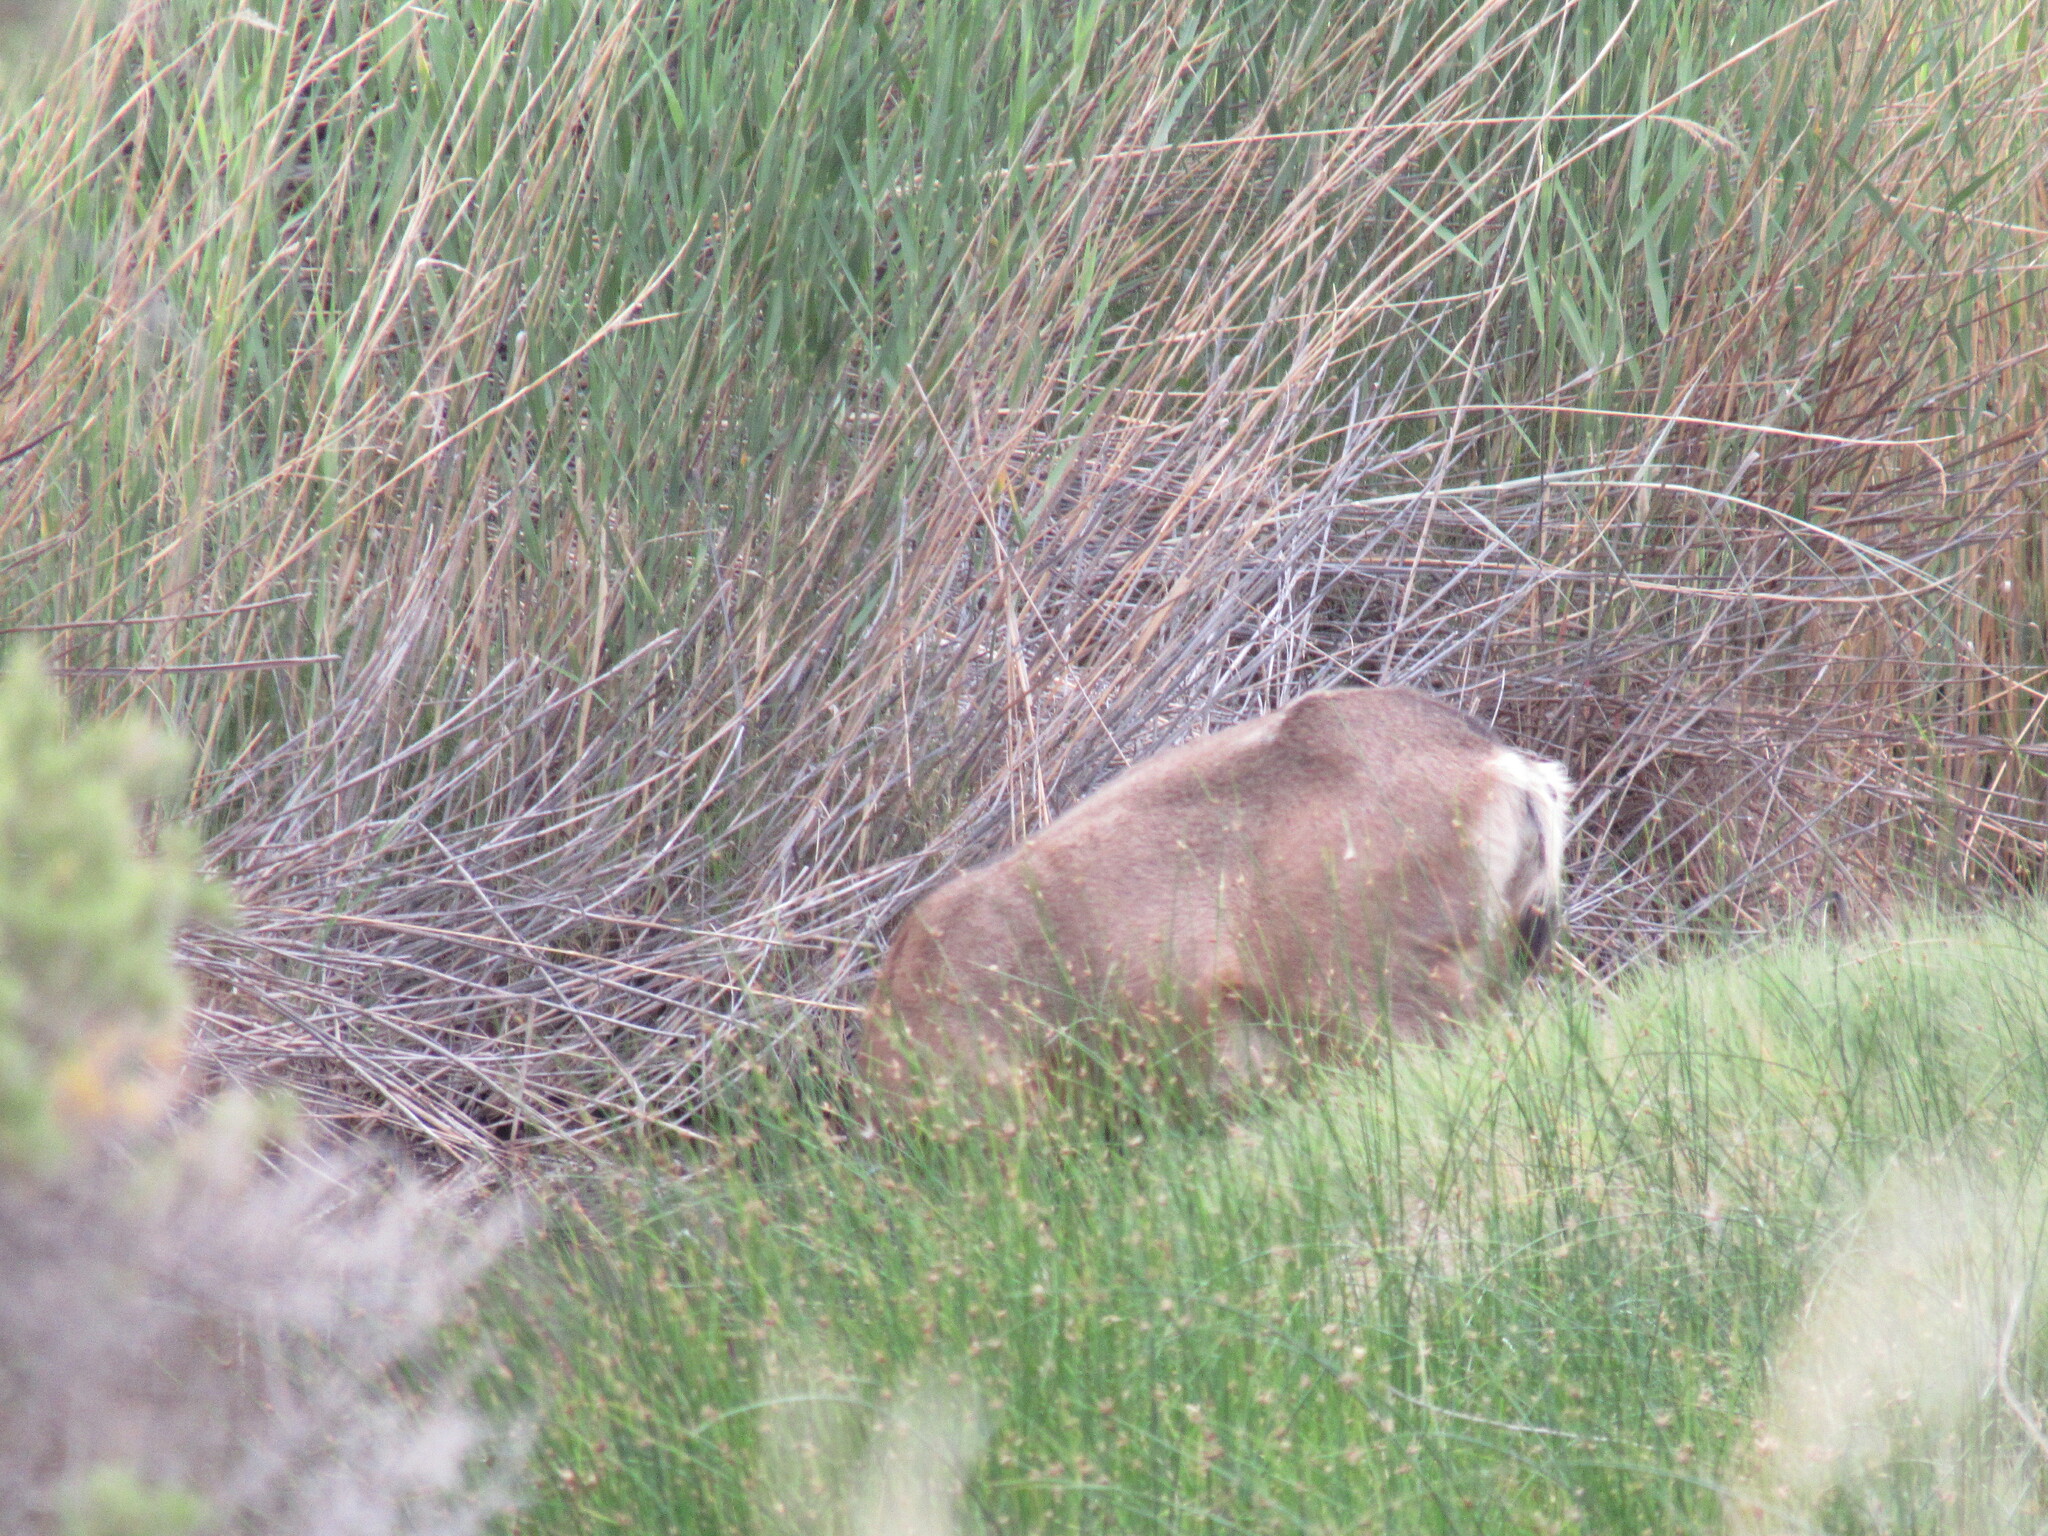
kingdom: Animalia
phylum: Chordata
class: Mammalia
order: Artiodactyla
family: Cervidae
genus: Odocoileus
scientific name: Odocoileus hemionus
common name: Mule deer
